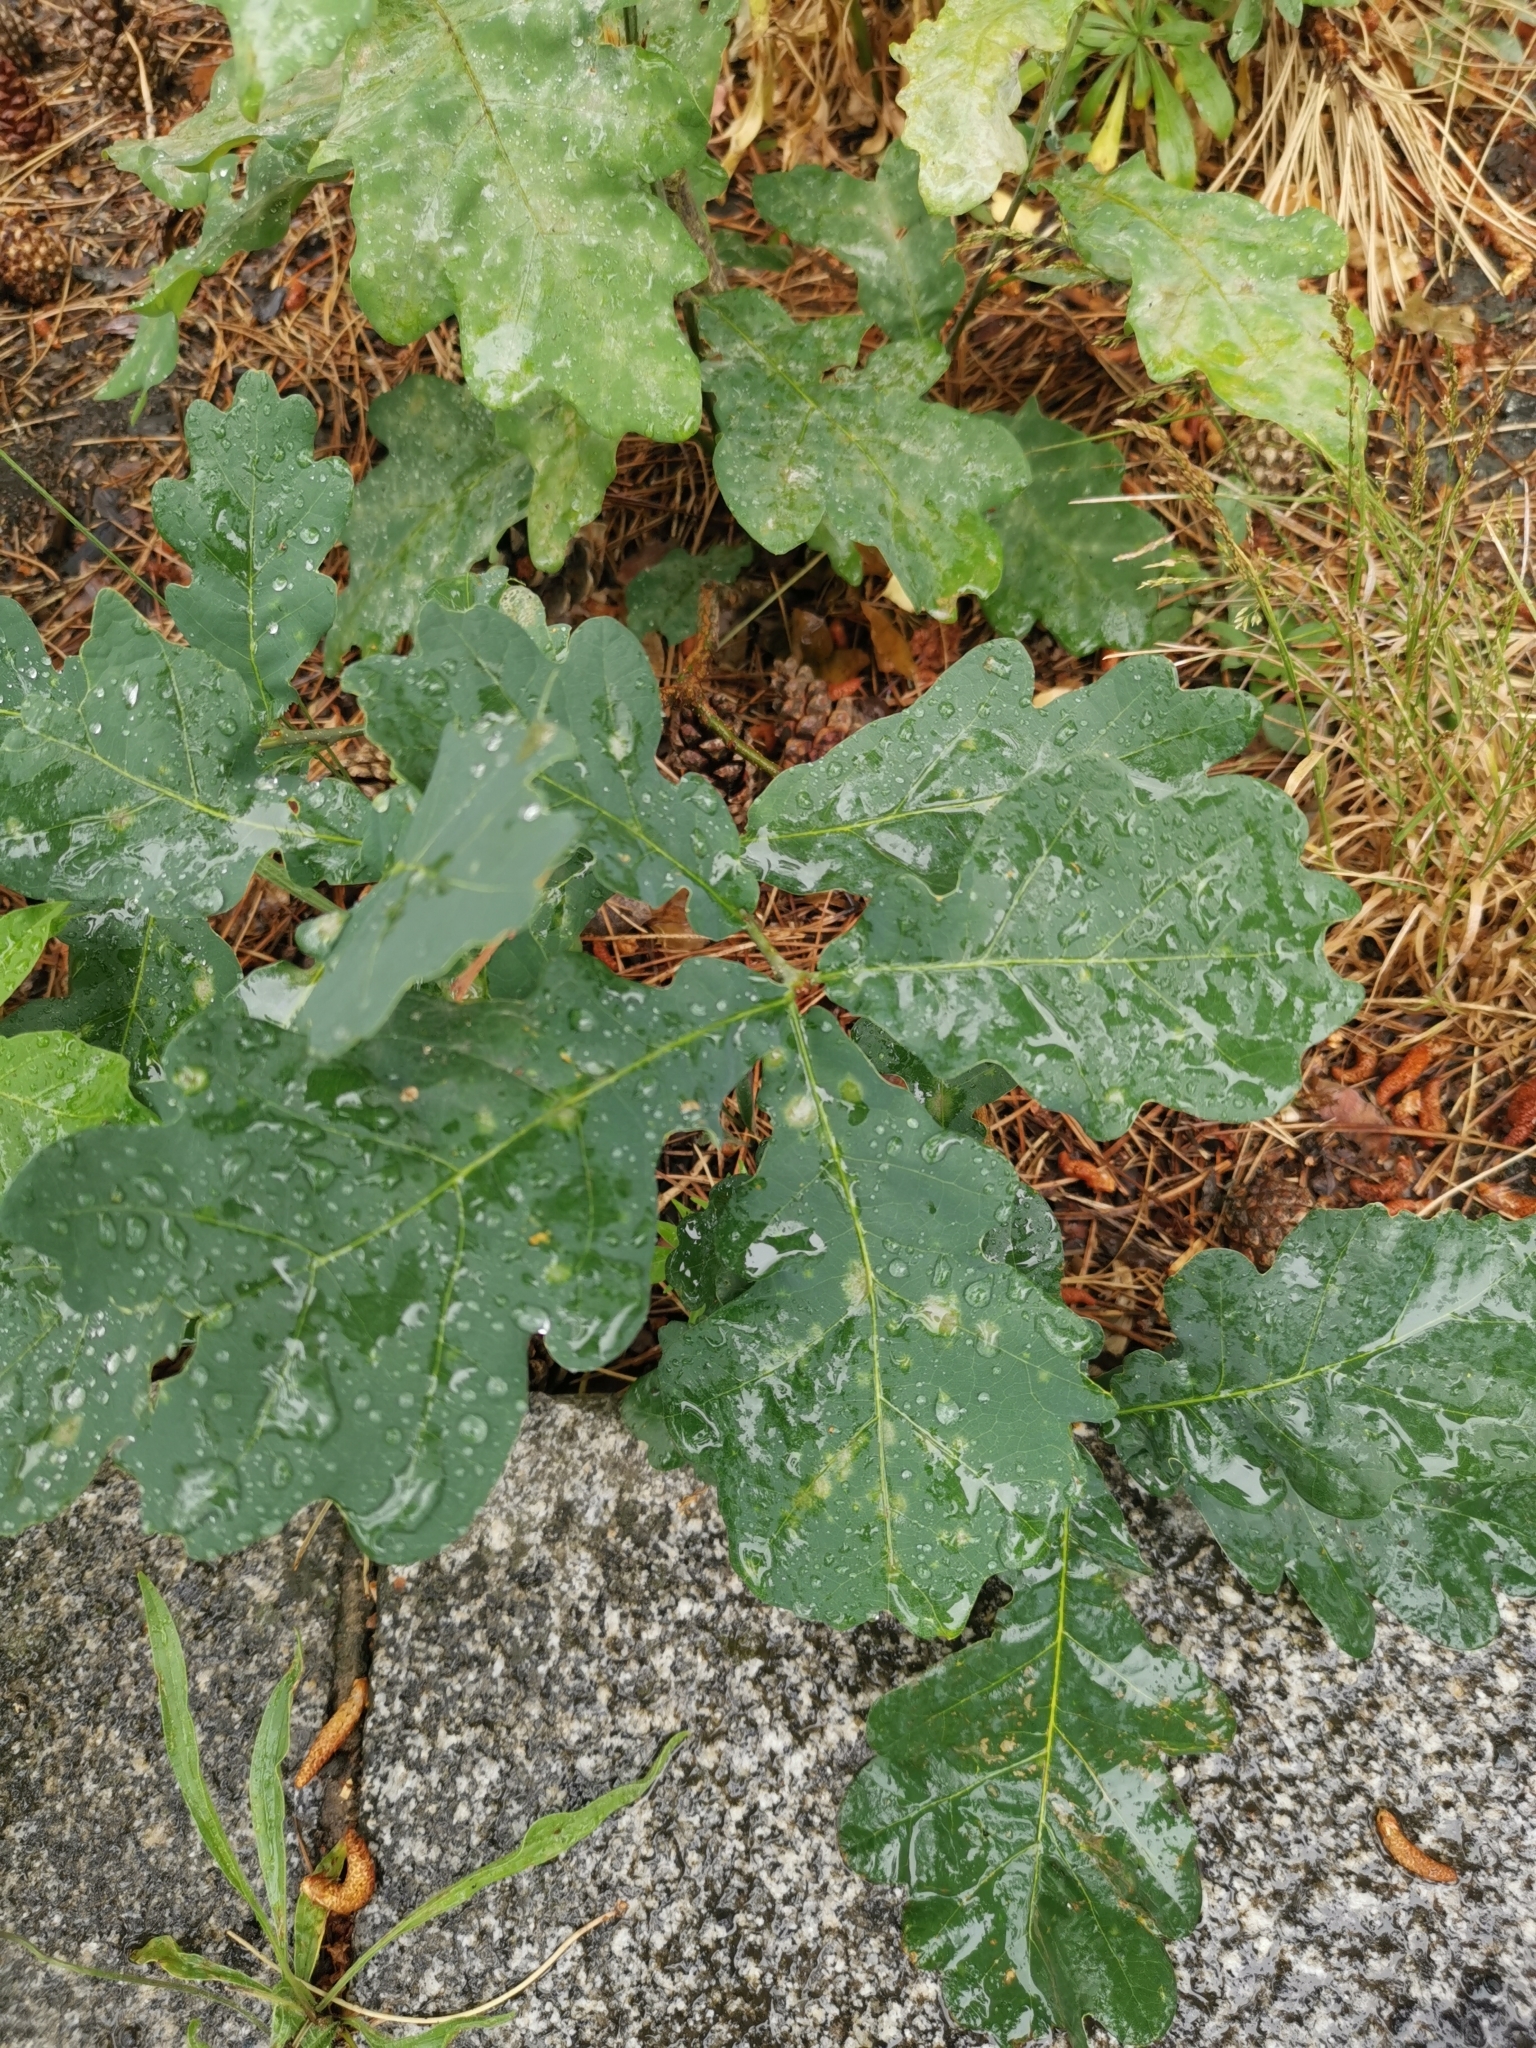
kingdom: Plantae
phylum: Tracheophyta
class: Magnoliopsida
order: Fagales
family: Fagaceae
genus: Quercus
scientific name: Quercus robur
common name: Pedunculate oak
